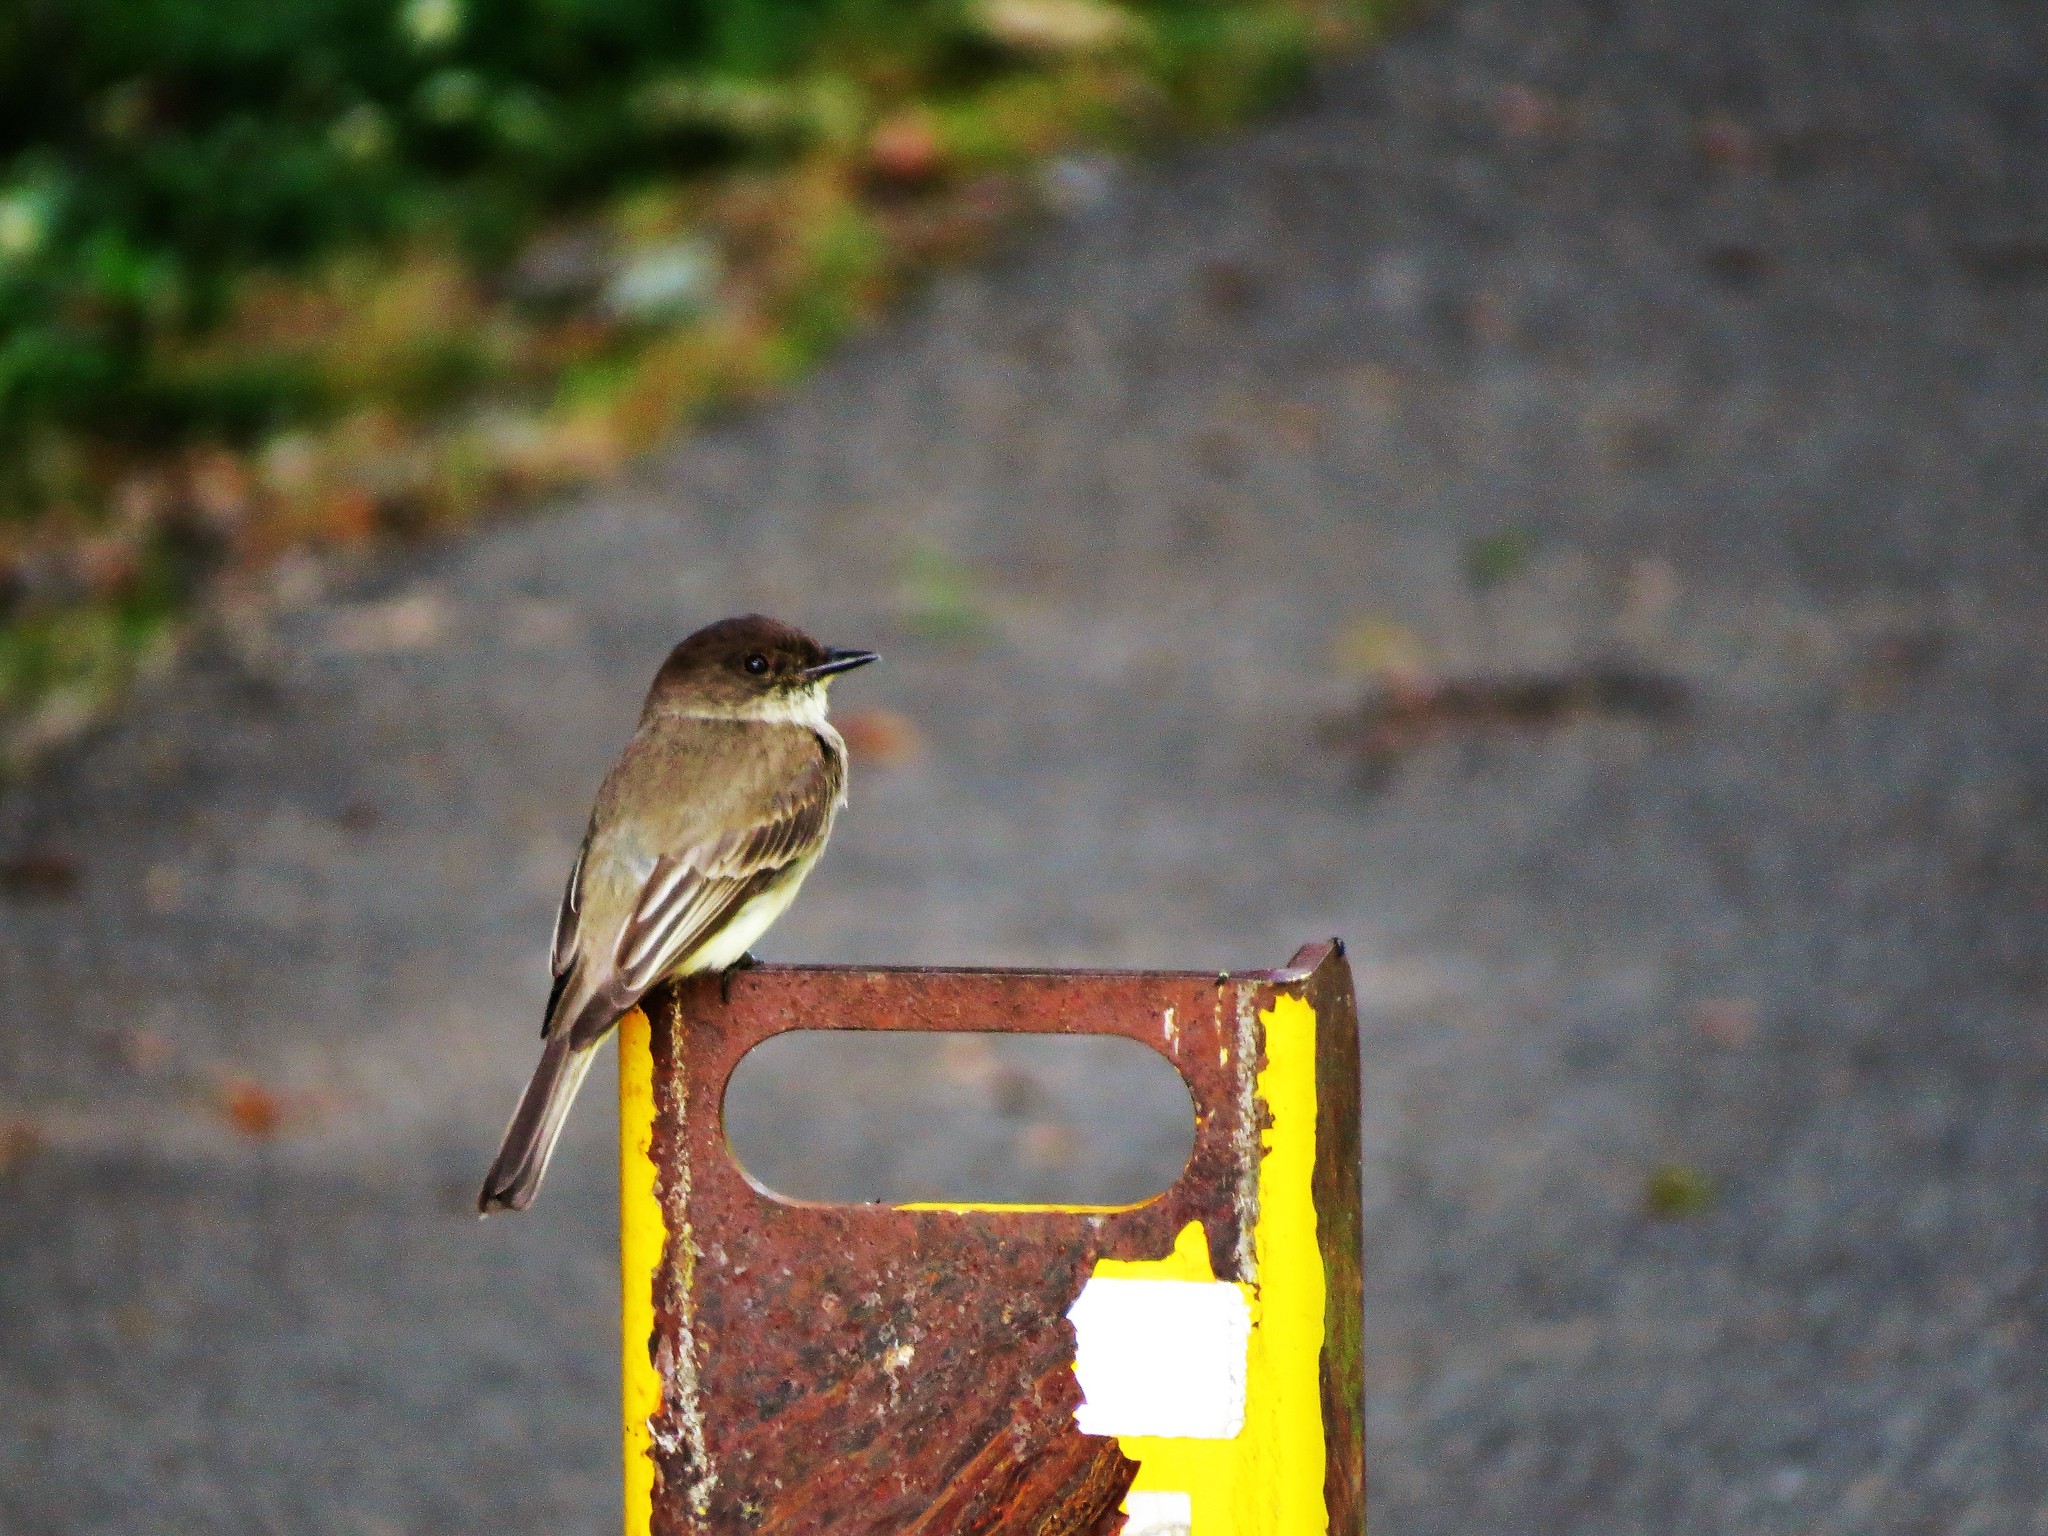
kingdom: Animalia
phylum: Chordata
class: Aves
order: Passeriformes
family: Tyrannidae
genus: Sayornis
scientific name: Sayornis phoebe
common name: Eastern phoebe
